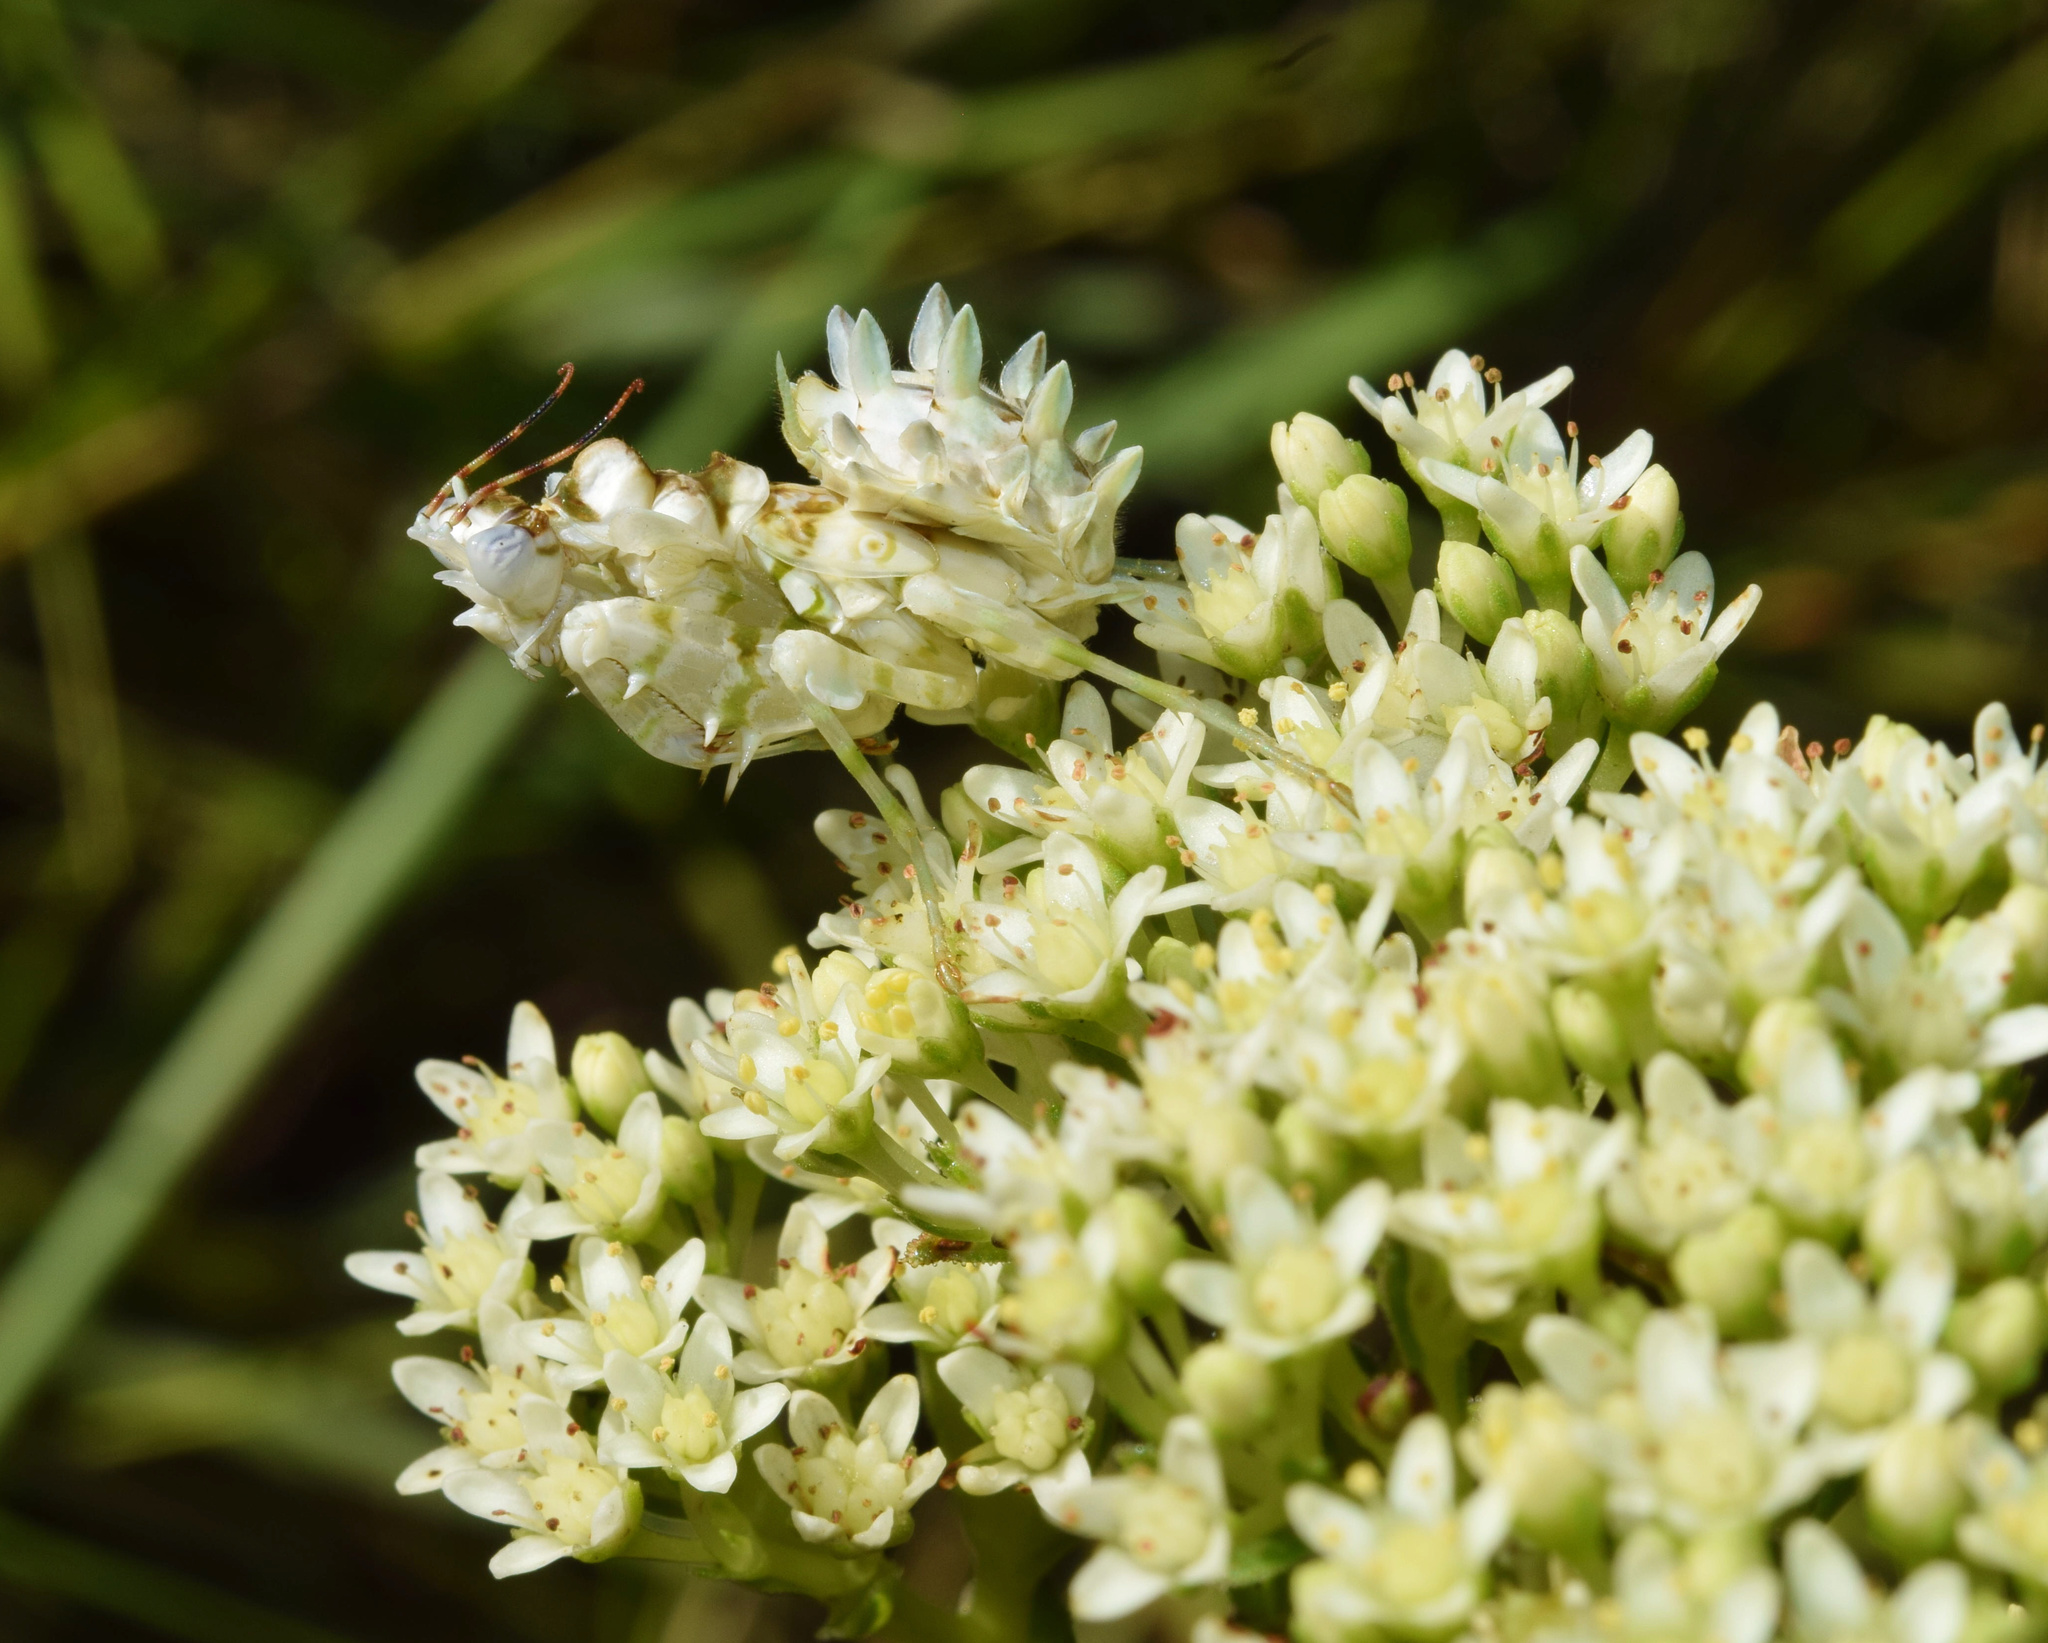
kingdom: Plantae
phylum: Tracheophyta
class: Magnoliopsida
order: Saxifragales
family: Crassulaceae
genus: Crassula
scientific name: Crassula vaginata
